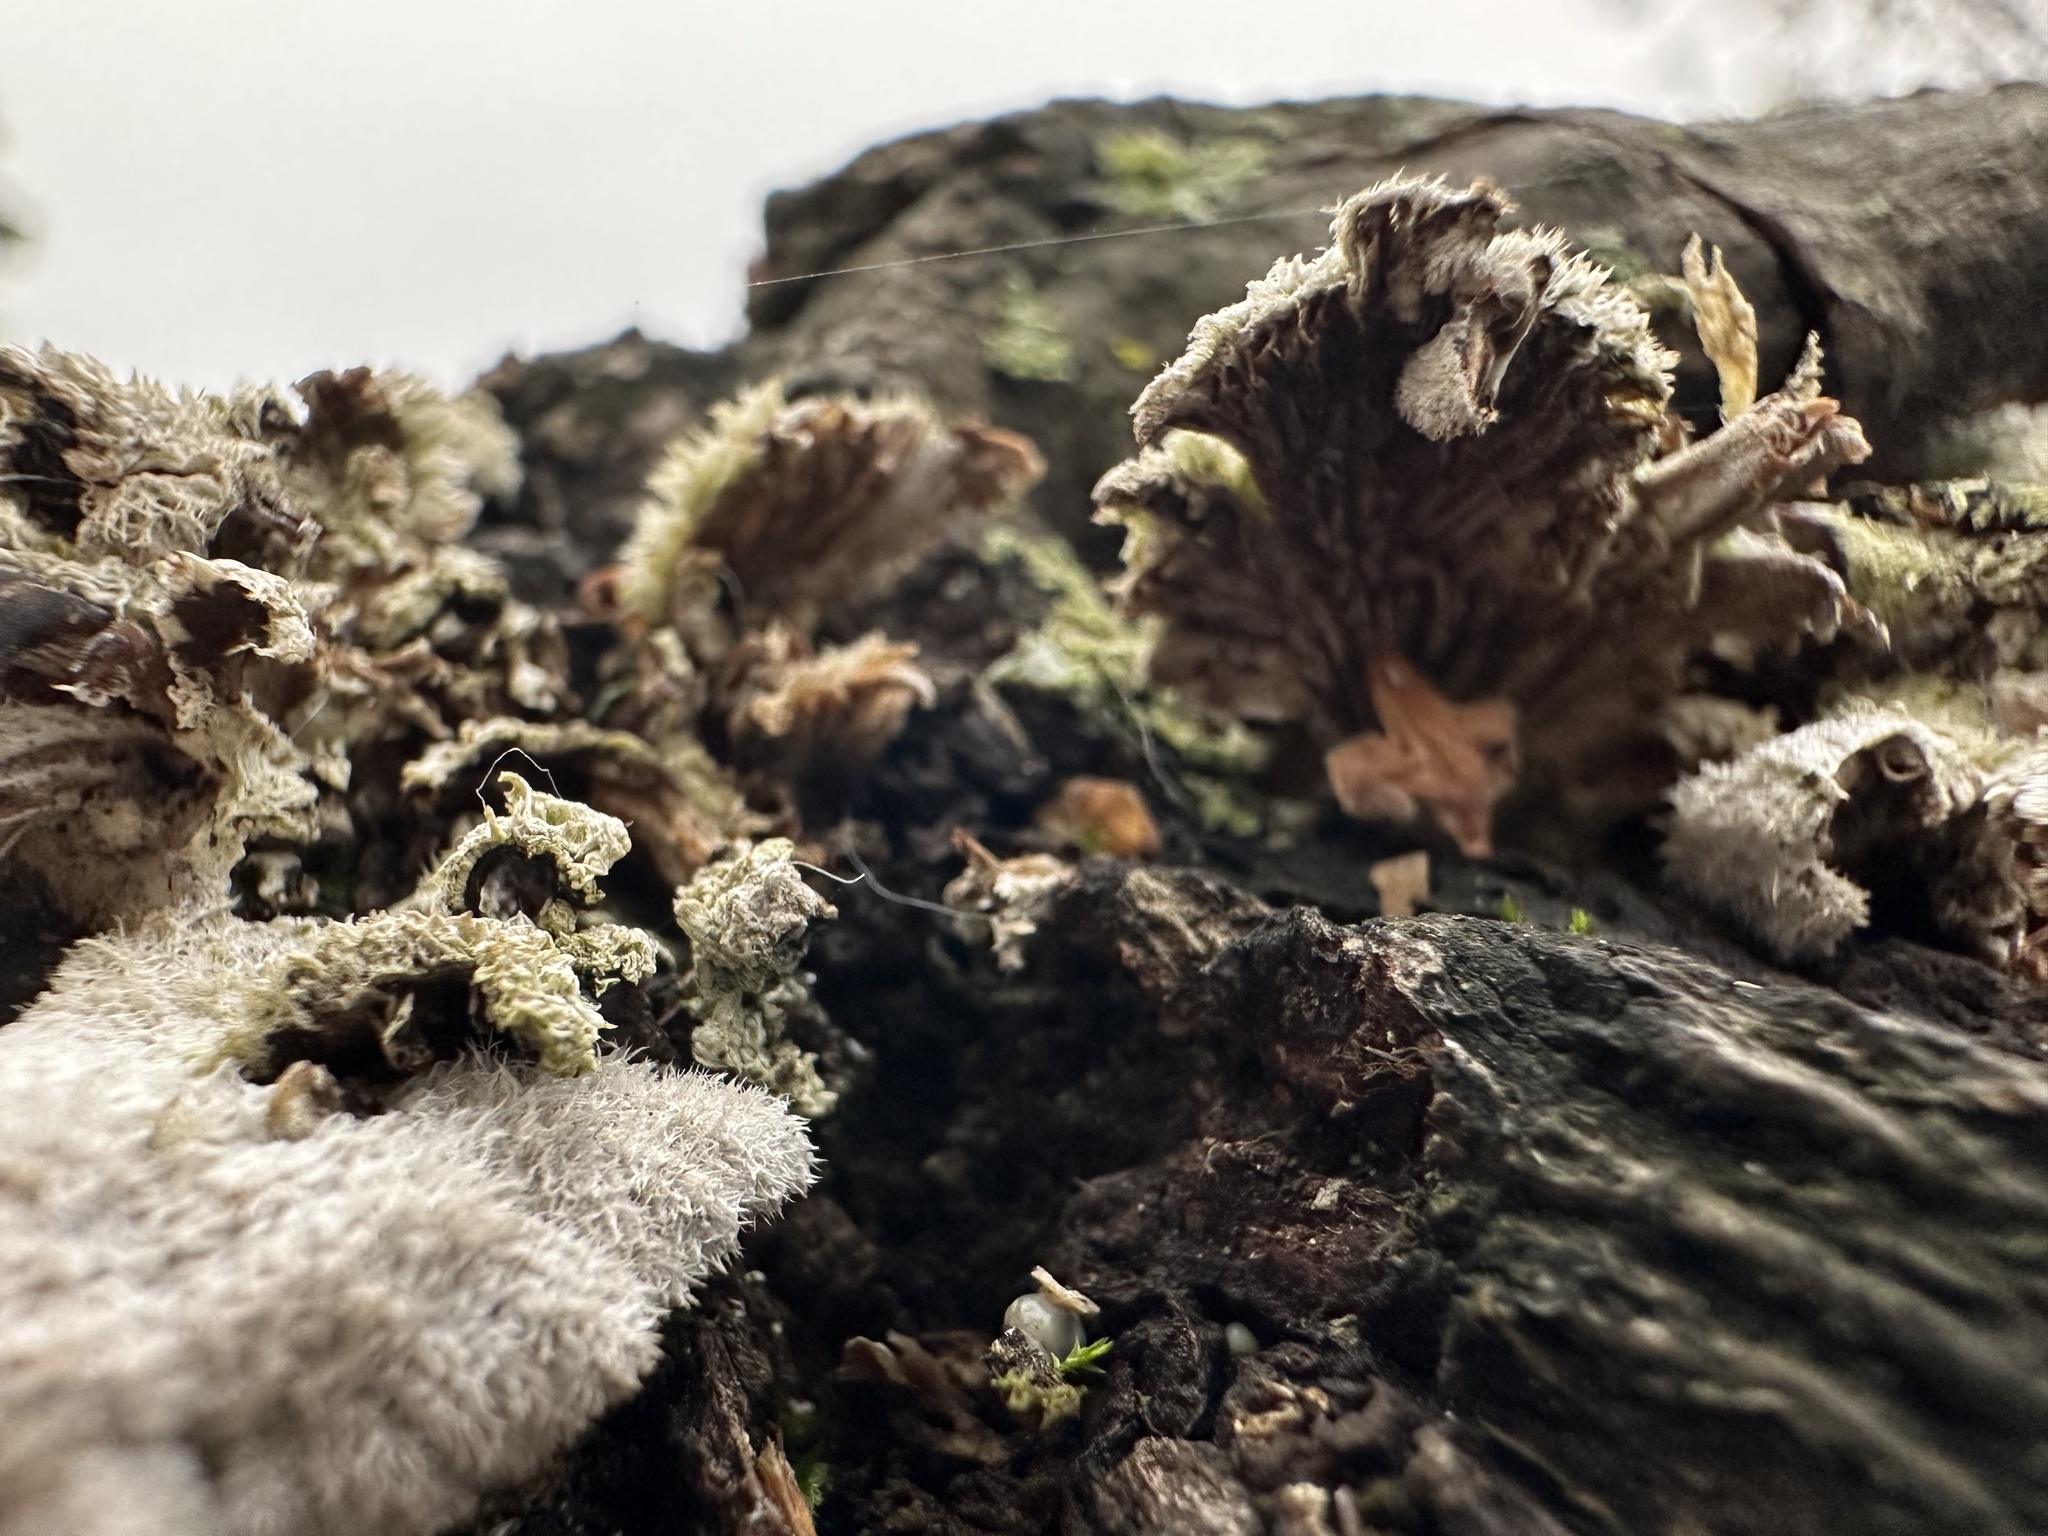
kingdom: Fungi
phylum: Basidiomycota
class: Agaricomycetes
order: Agaricales
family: Schizophyllaceae
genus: Schizophyllum
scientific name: Schizophyllum commune
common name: Common porecrust
